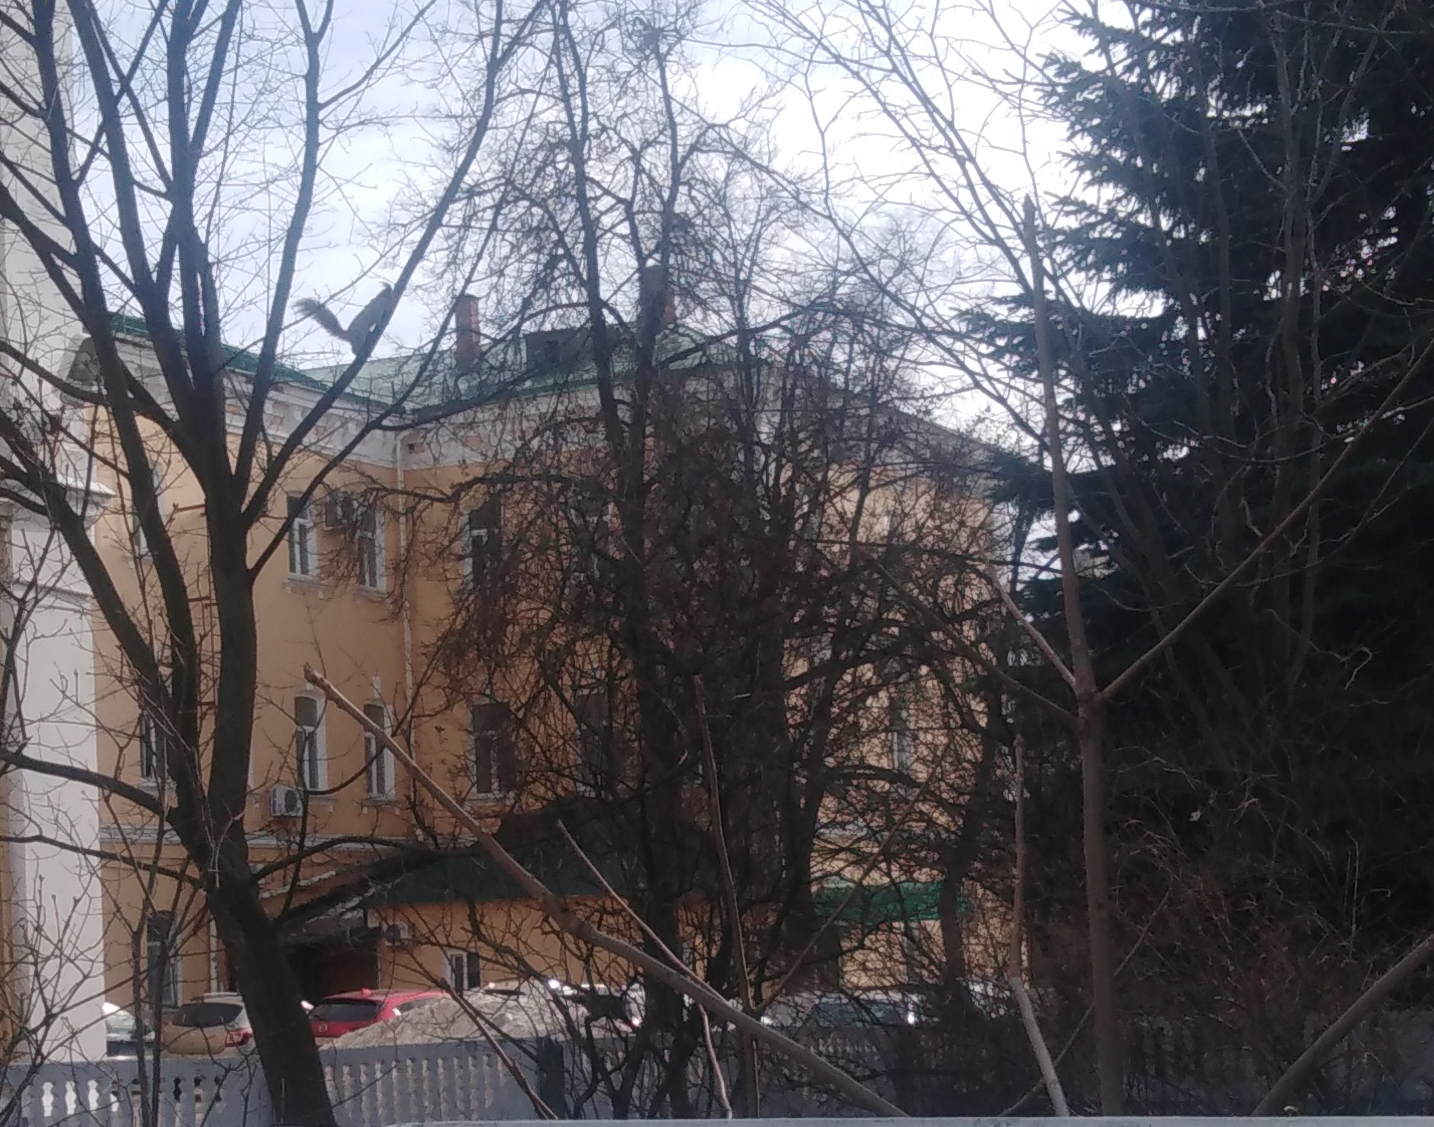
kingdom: Animalia
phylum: Chordata
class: Mammalia
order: Rodentia
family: Sciuridae
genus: Sciurus
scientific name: Sciurus vulgaris
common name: Eurasian red squirrel
